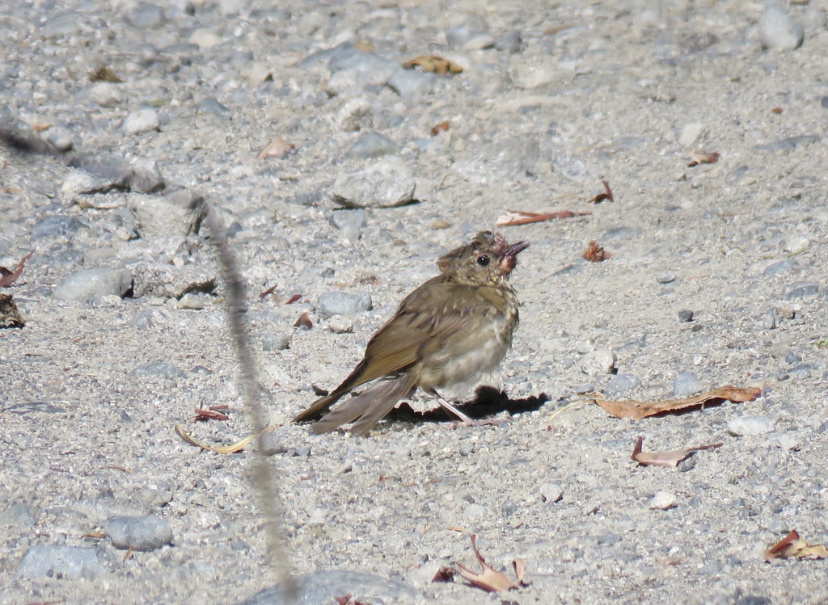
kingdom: Viruses
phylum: Nucleocytoviricota
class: Pokkesviricetes
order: Chitovirales
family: Poxviridae
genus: Avipoxvirus
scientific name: Avipoxvirus
